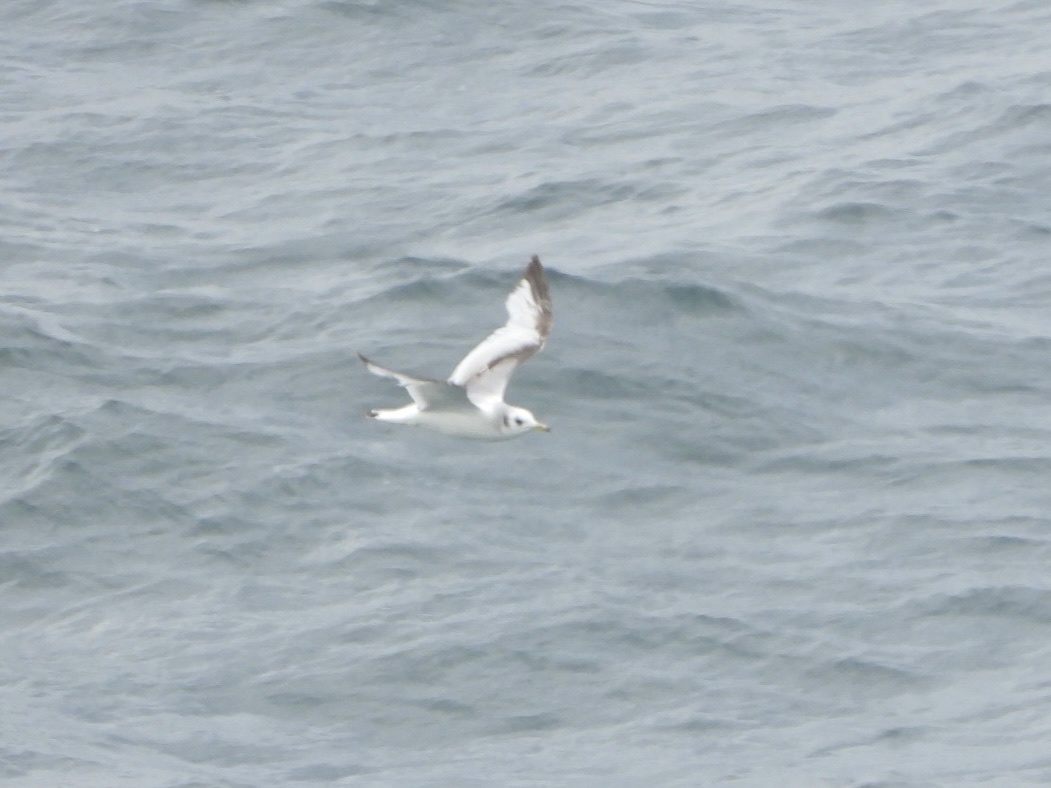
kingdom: Animalia
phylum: Chordata
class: Aves
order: Charadriiformes
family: Laridae
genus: Rissa
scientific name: Rissa tridactyla
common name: Black-legged kittiwake
